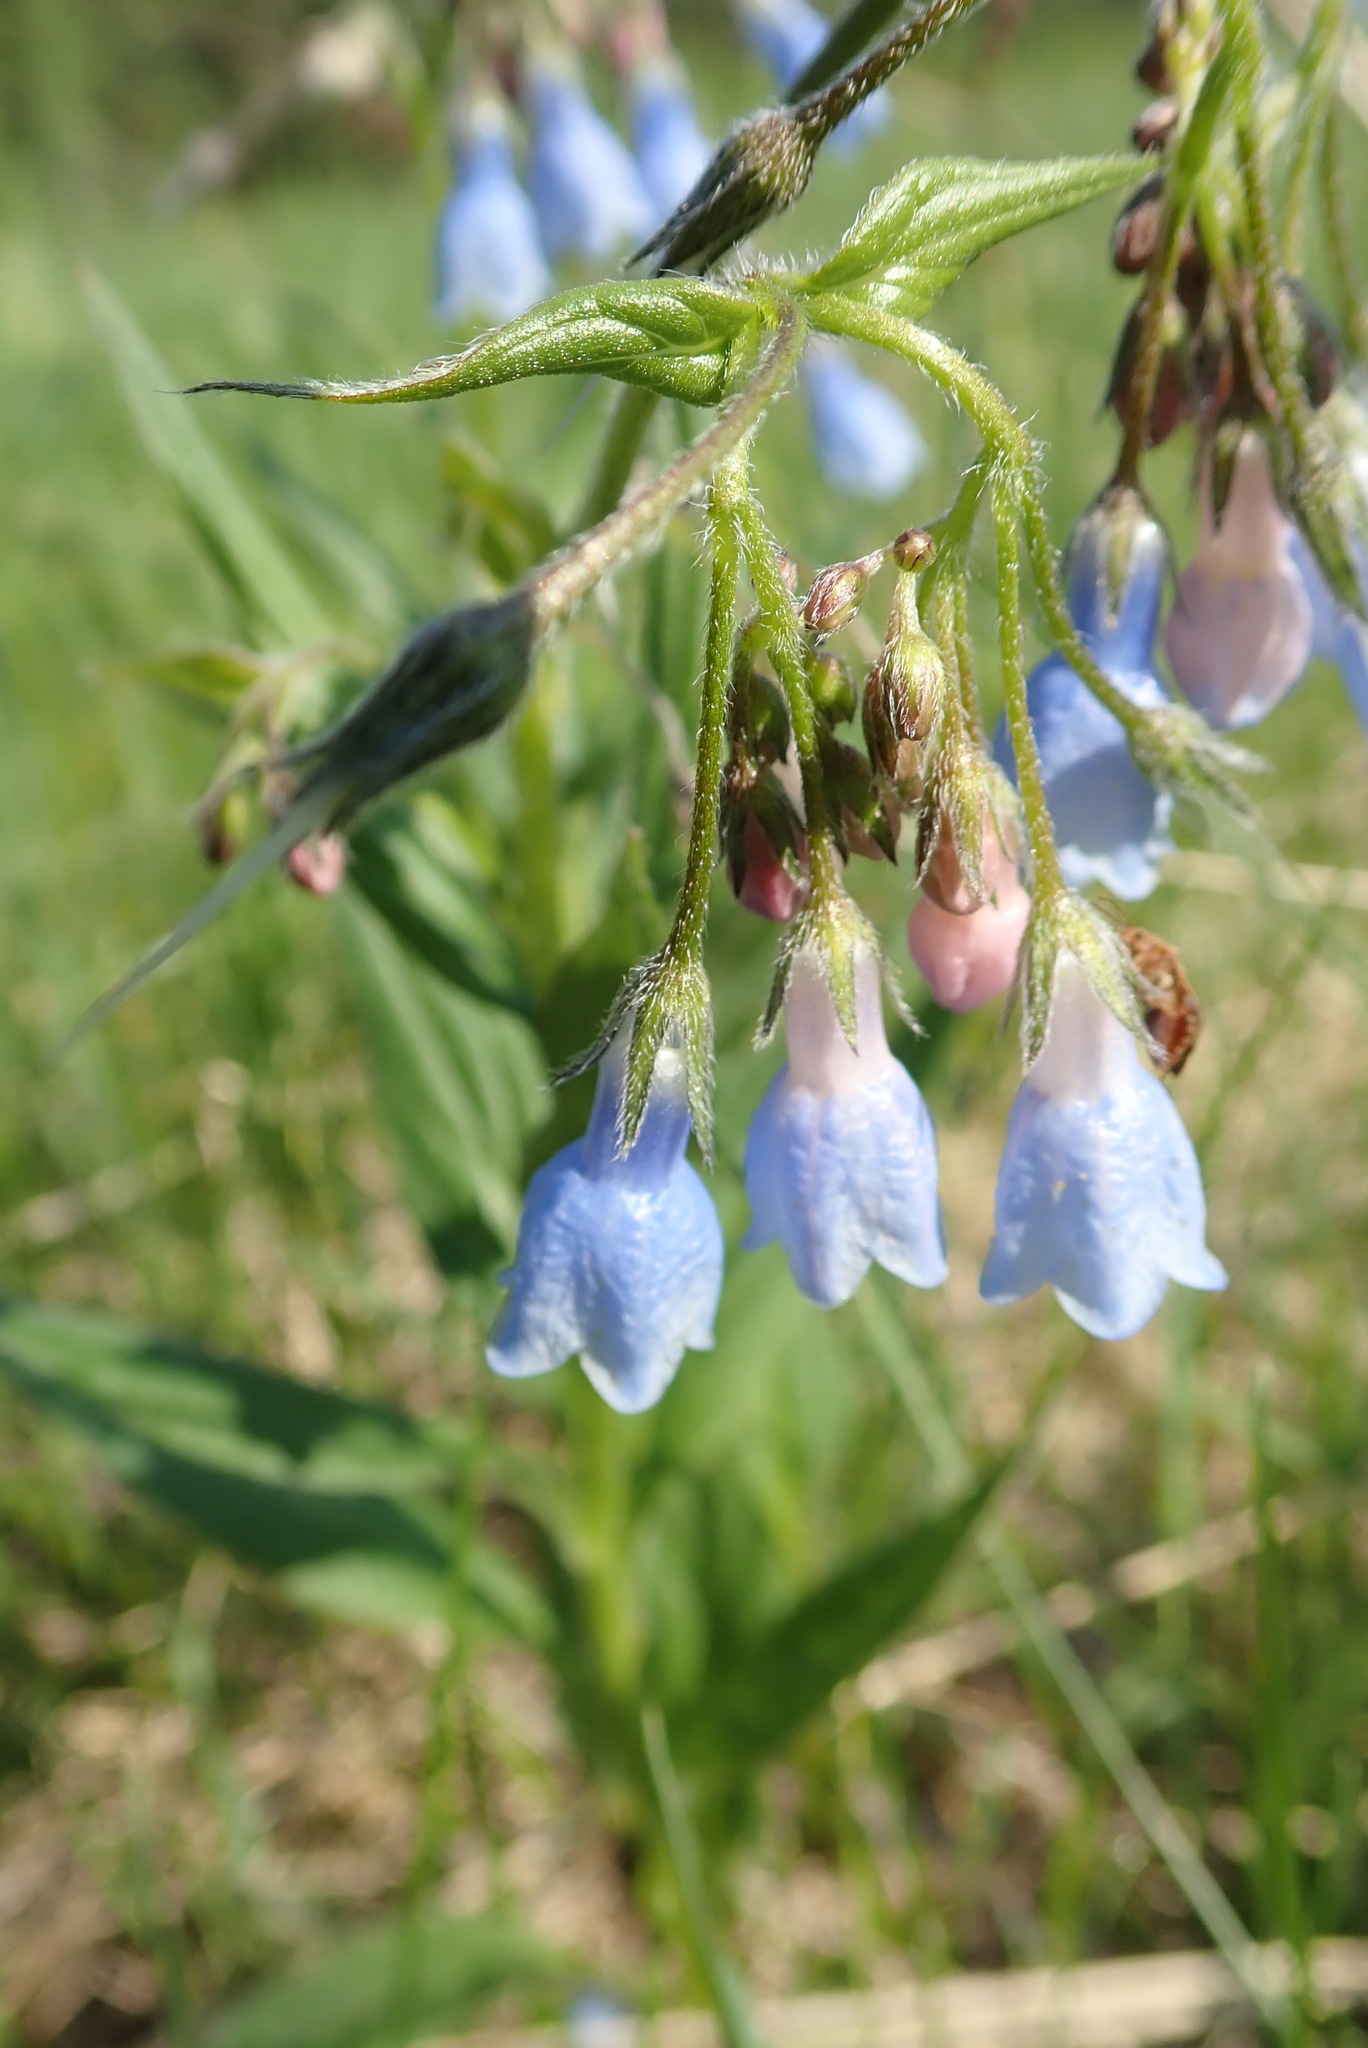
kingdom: Plantae
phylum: Tracheophyta
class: Magnoliopsida
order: Boraginales
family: Boraginaceae
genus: Mertensia
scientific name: Mertensia paniculata
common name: Panicled bluebells
